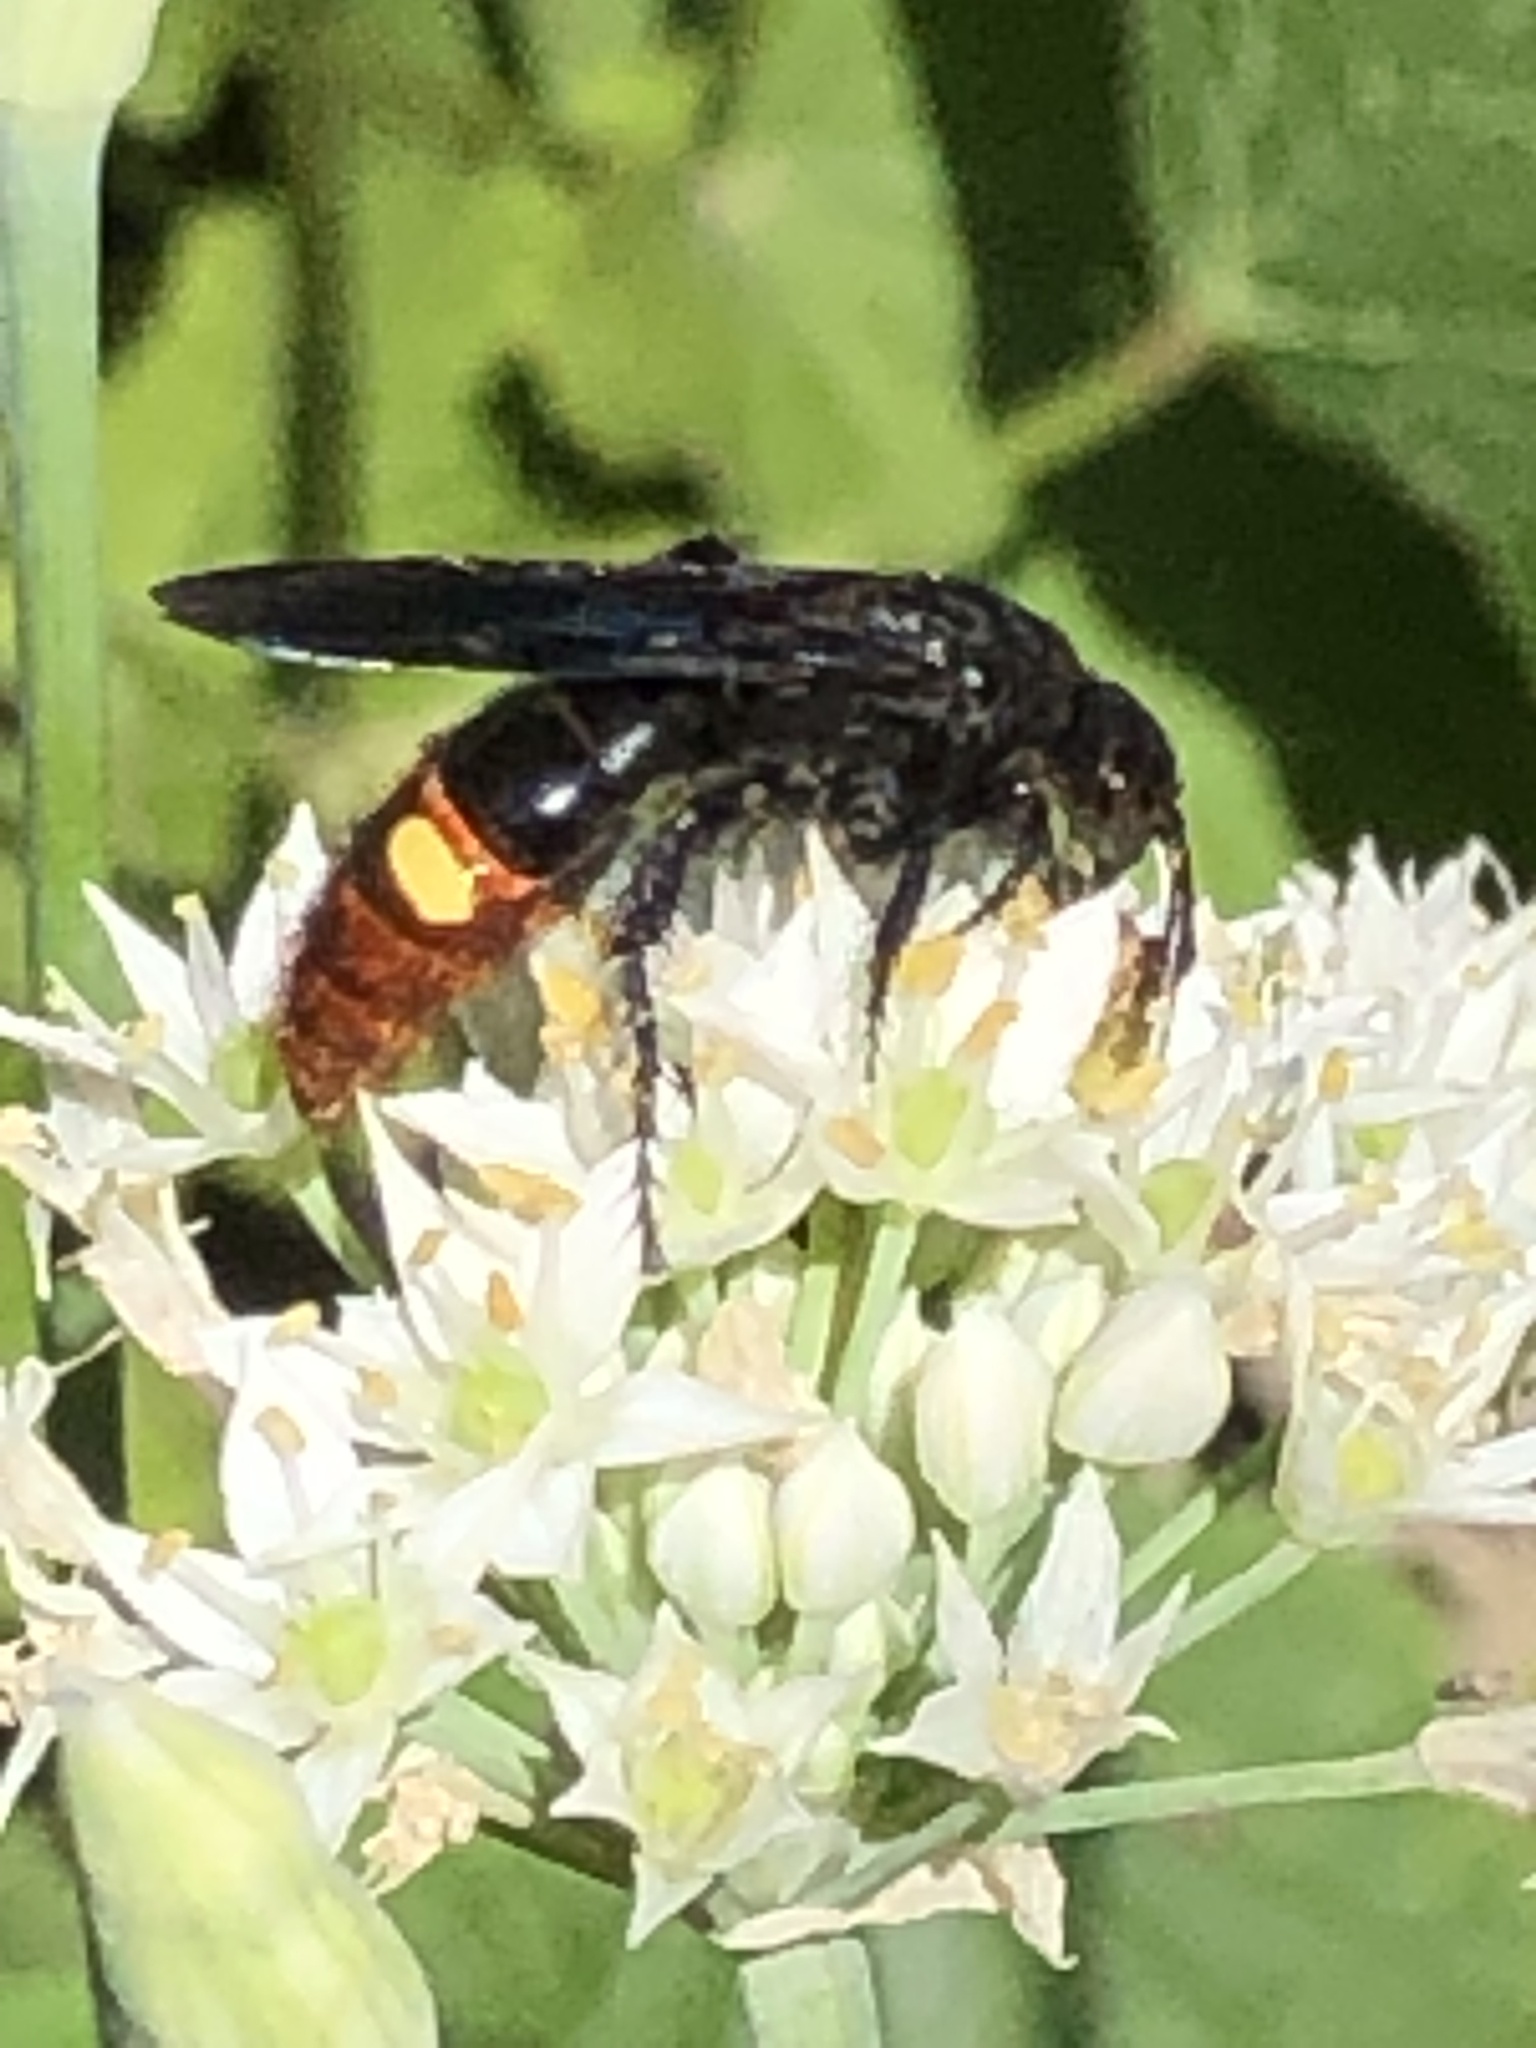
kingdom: Animalia
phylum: Arthropoda
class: Insecta
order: Hymenoptera
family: Scoliidae
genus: Scolia
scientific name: Scolia dubia
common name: Blue-winged scoliid wasp
